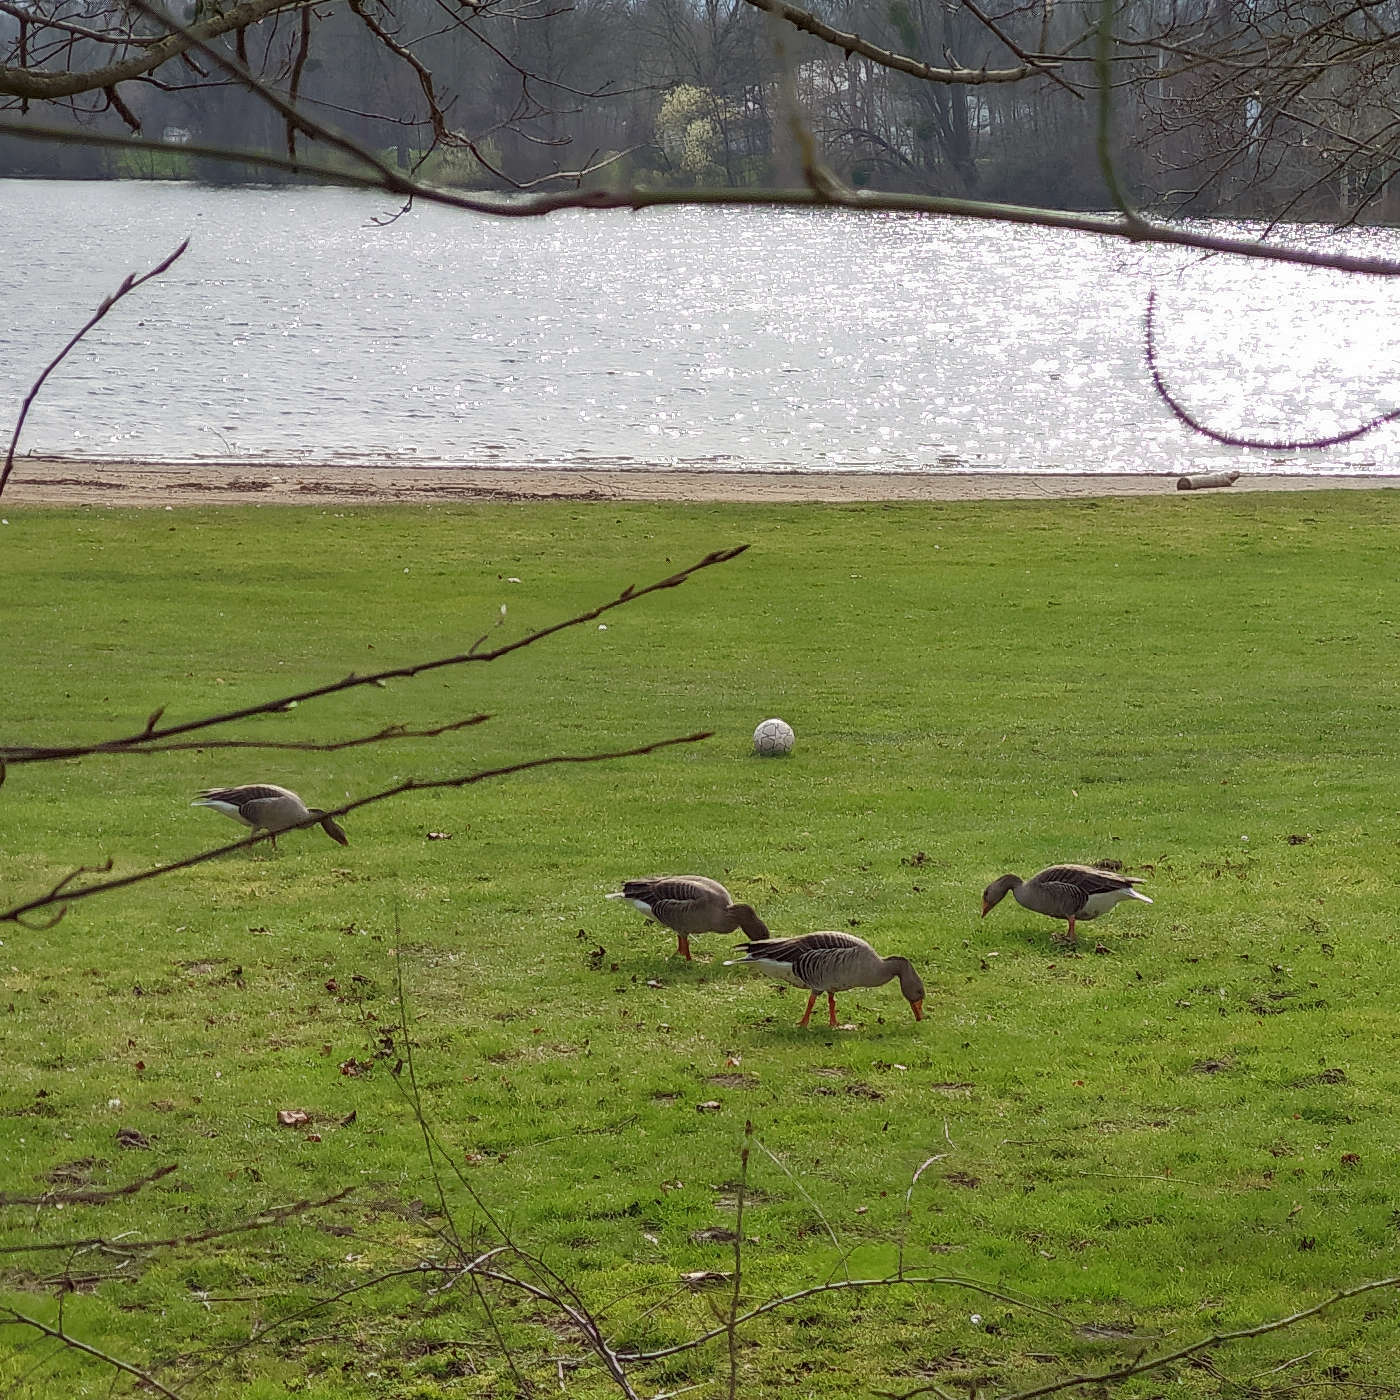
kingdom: Animalia
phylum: Chordata
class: Aves
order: Anseriformes
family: Anatidae
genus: Anser
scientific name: Anser anser
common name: Greylag goose
